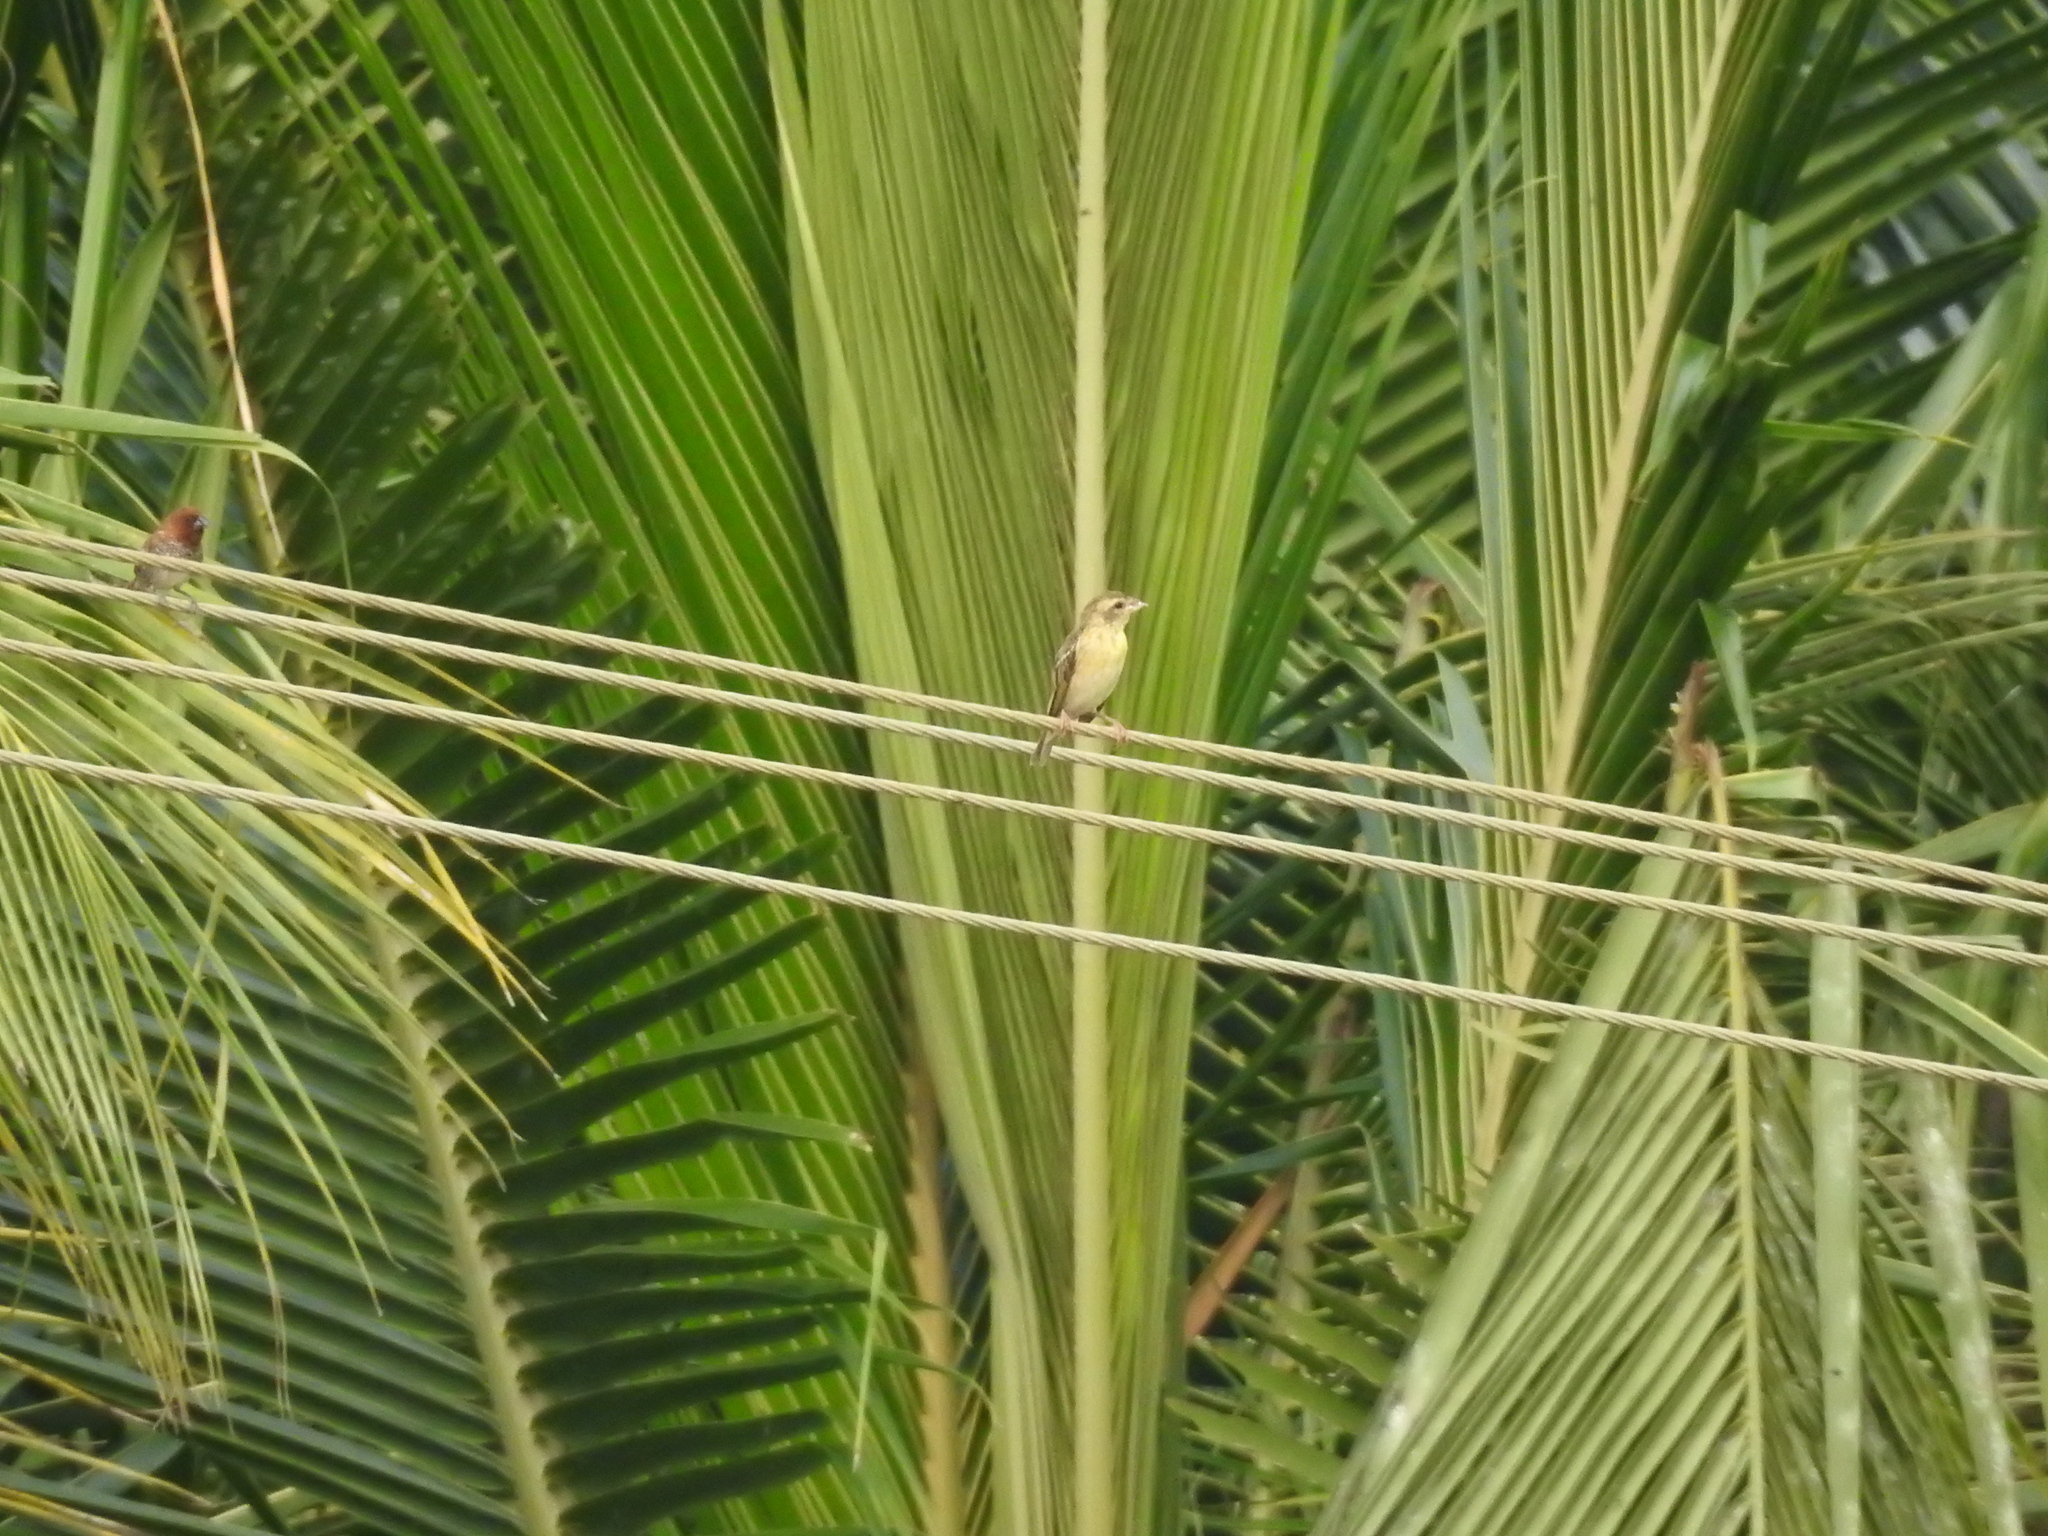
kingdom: Animalia
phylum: Chordata
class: Aves
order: Passeriformes
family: Ploceidae
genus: Ploceus
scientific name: Ploceus philippinus
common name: Baya weaver
